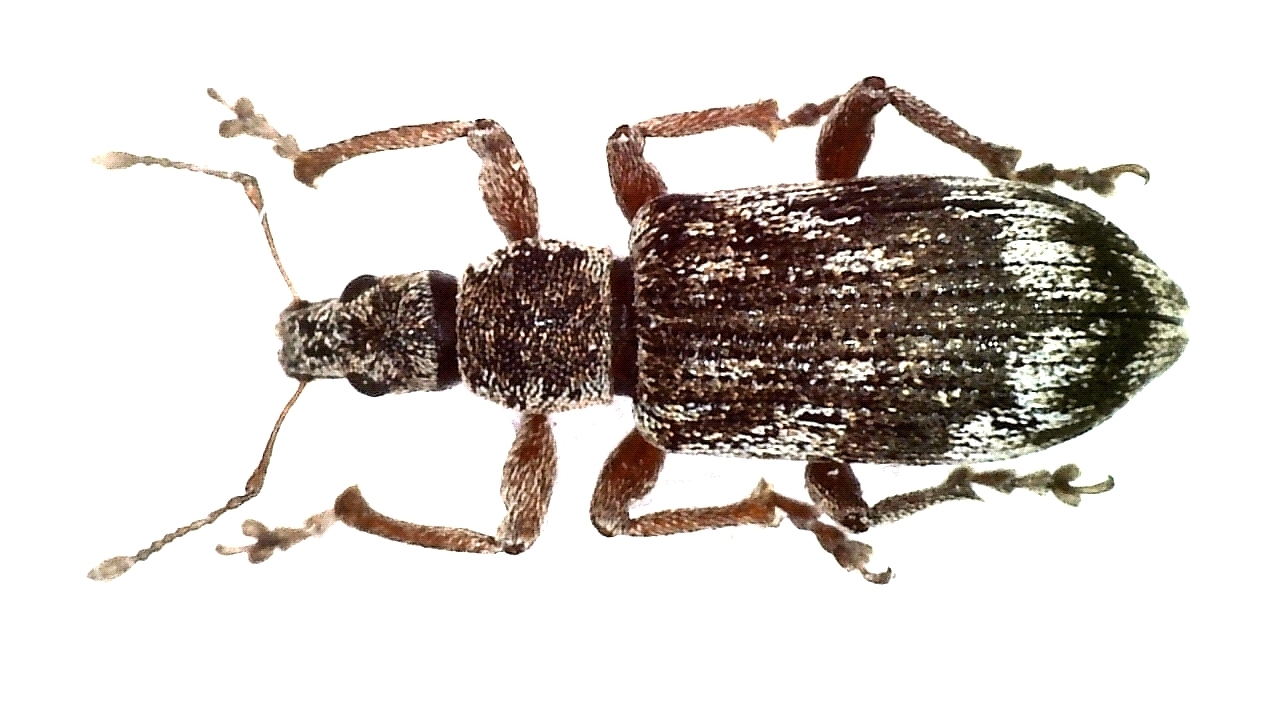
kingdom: Animalia
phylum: Arthropoda
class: Insecta
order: Coleoptera
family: Curculionidae
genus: Polydrusus
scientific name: Polydrusus tereticollis
